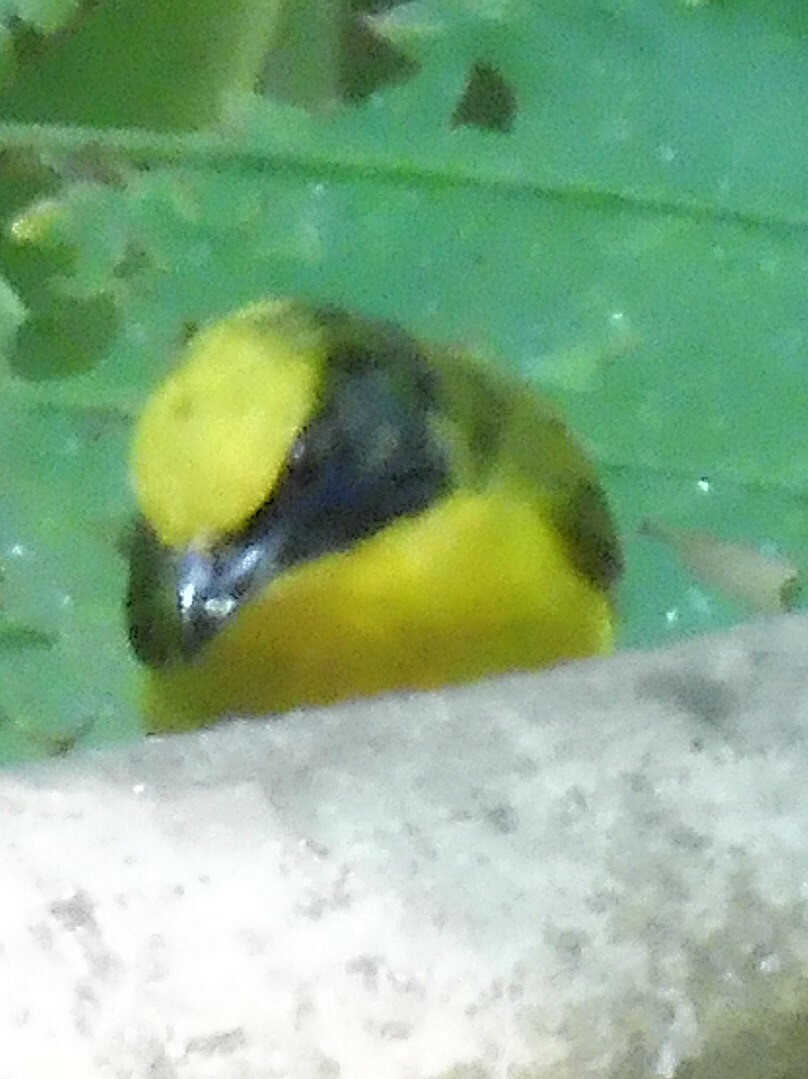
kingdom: Animalia
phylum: Chordata
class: Aves
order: Passeriformes
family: Fringillidae
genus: Euphonia
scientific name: Euphonia laniirostris
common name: Thick-billed euphonia
